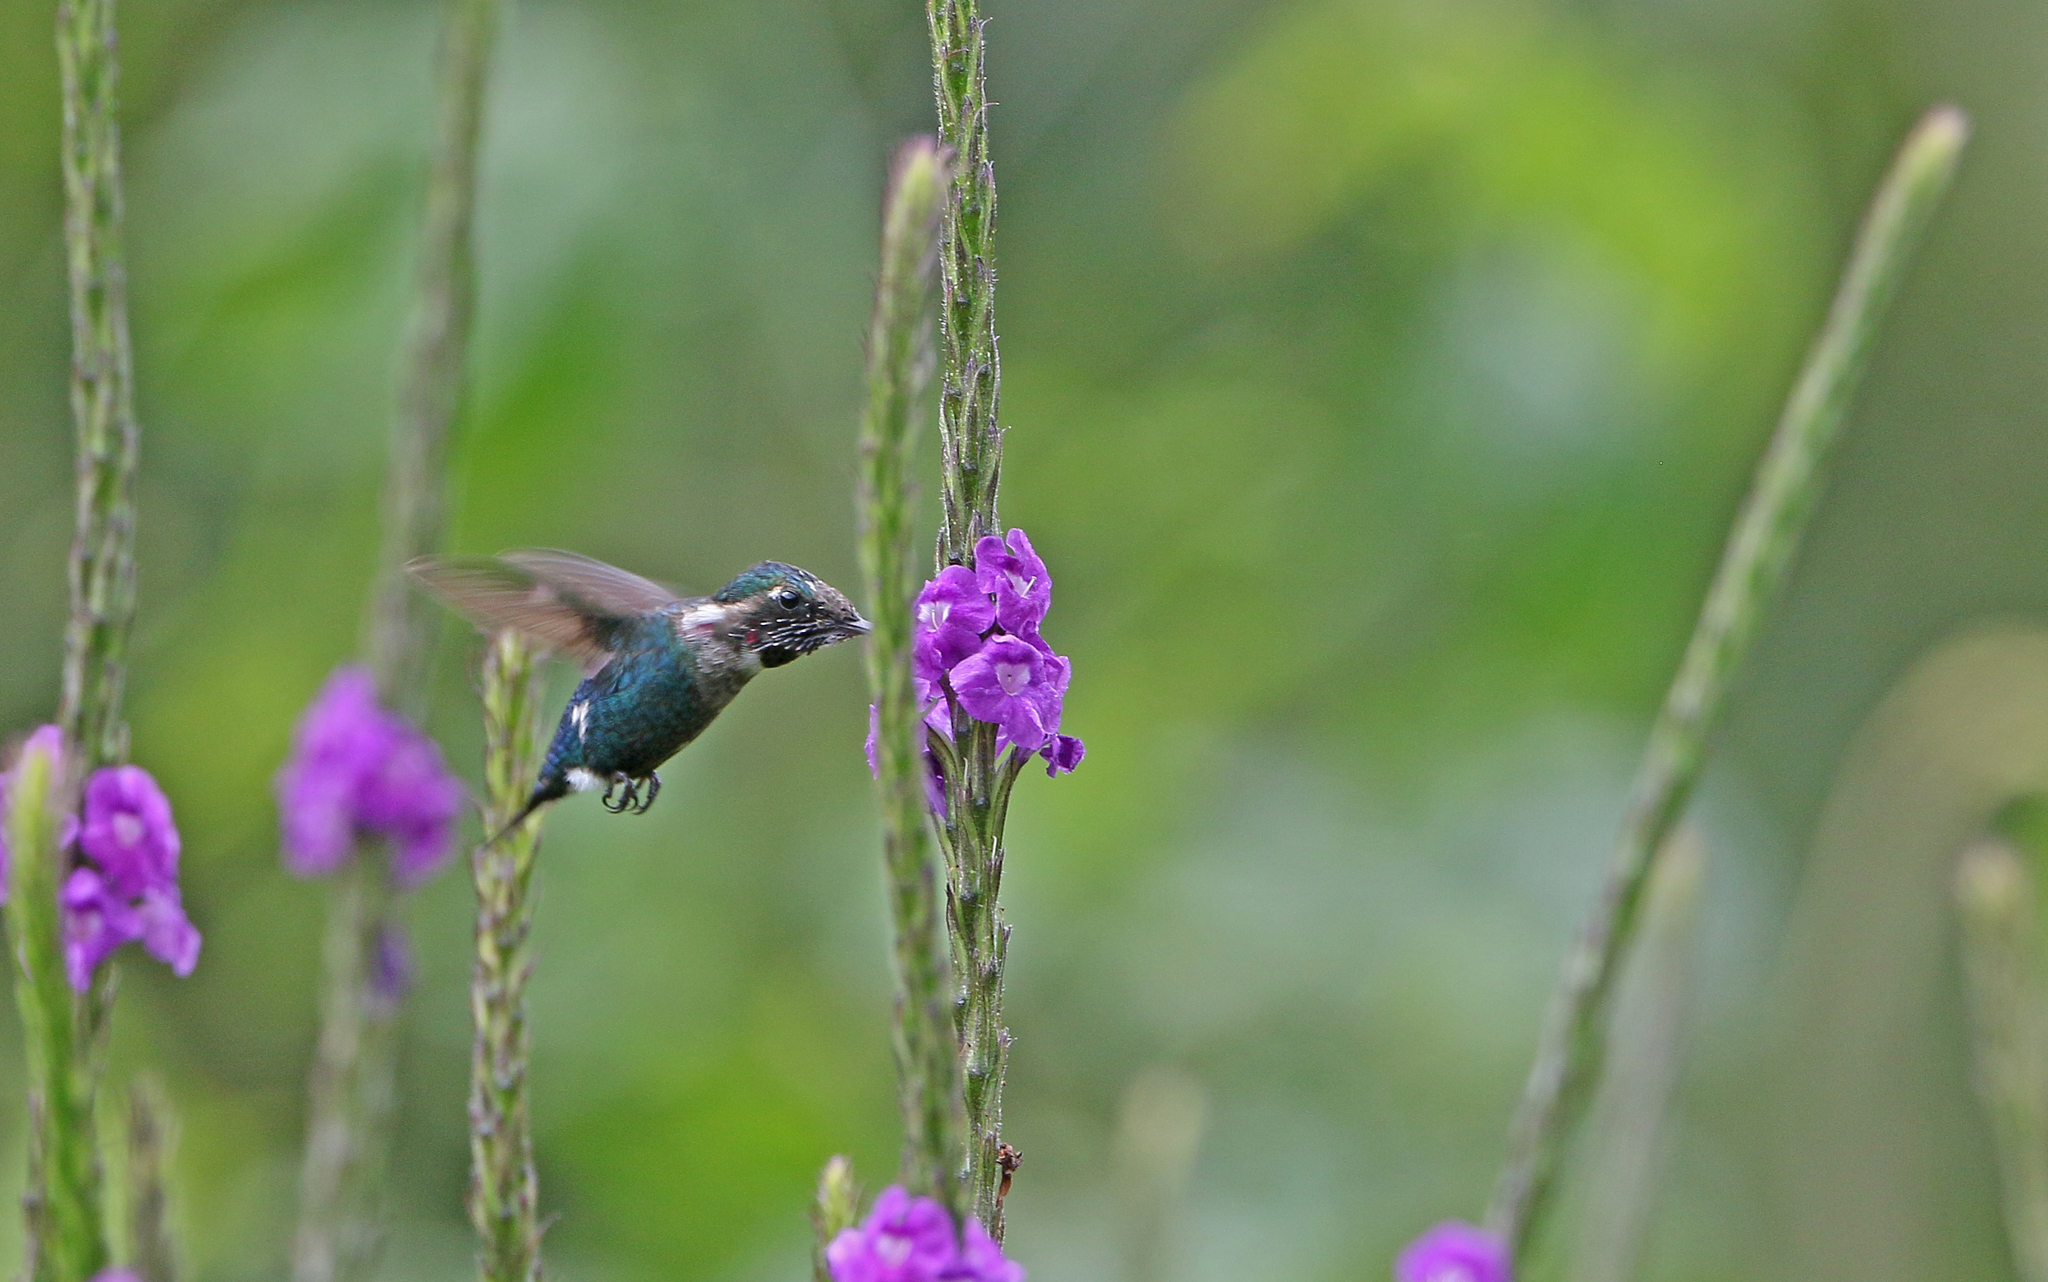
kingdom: Animalia
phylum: Chordata
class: Aves
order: Apodiformes
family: Trochilidae
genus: Chaetocercus
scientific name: Chaetocercus heliodor
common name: Gorgeted woodstar
